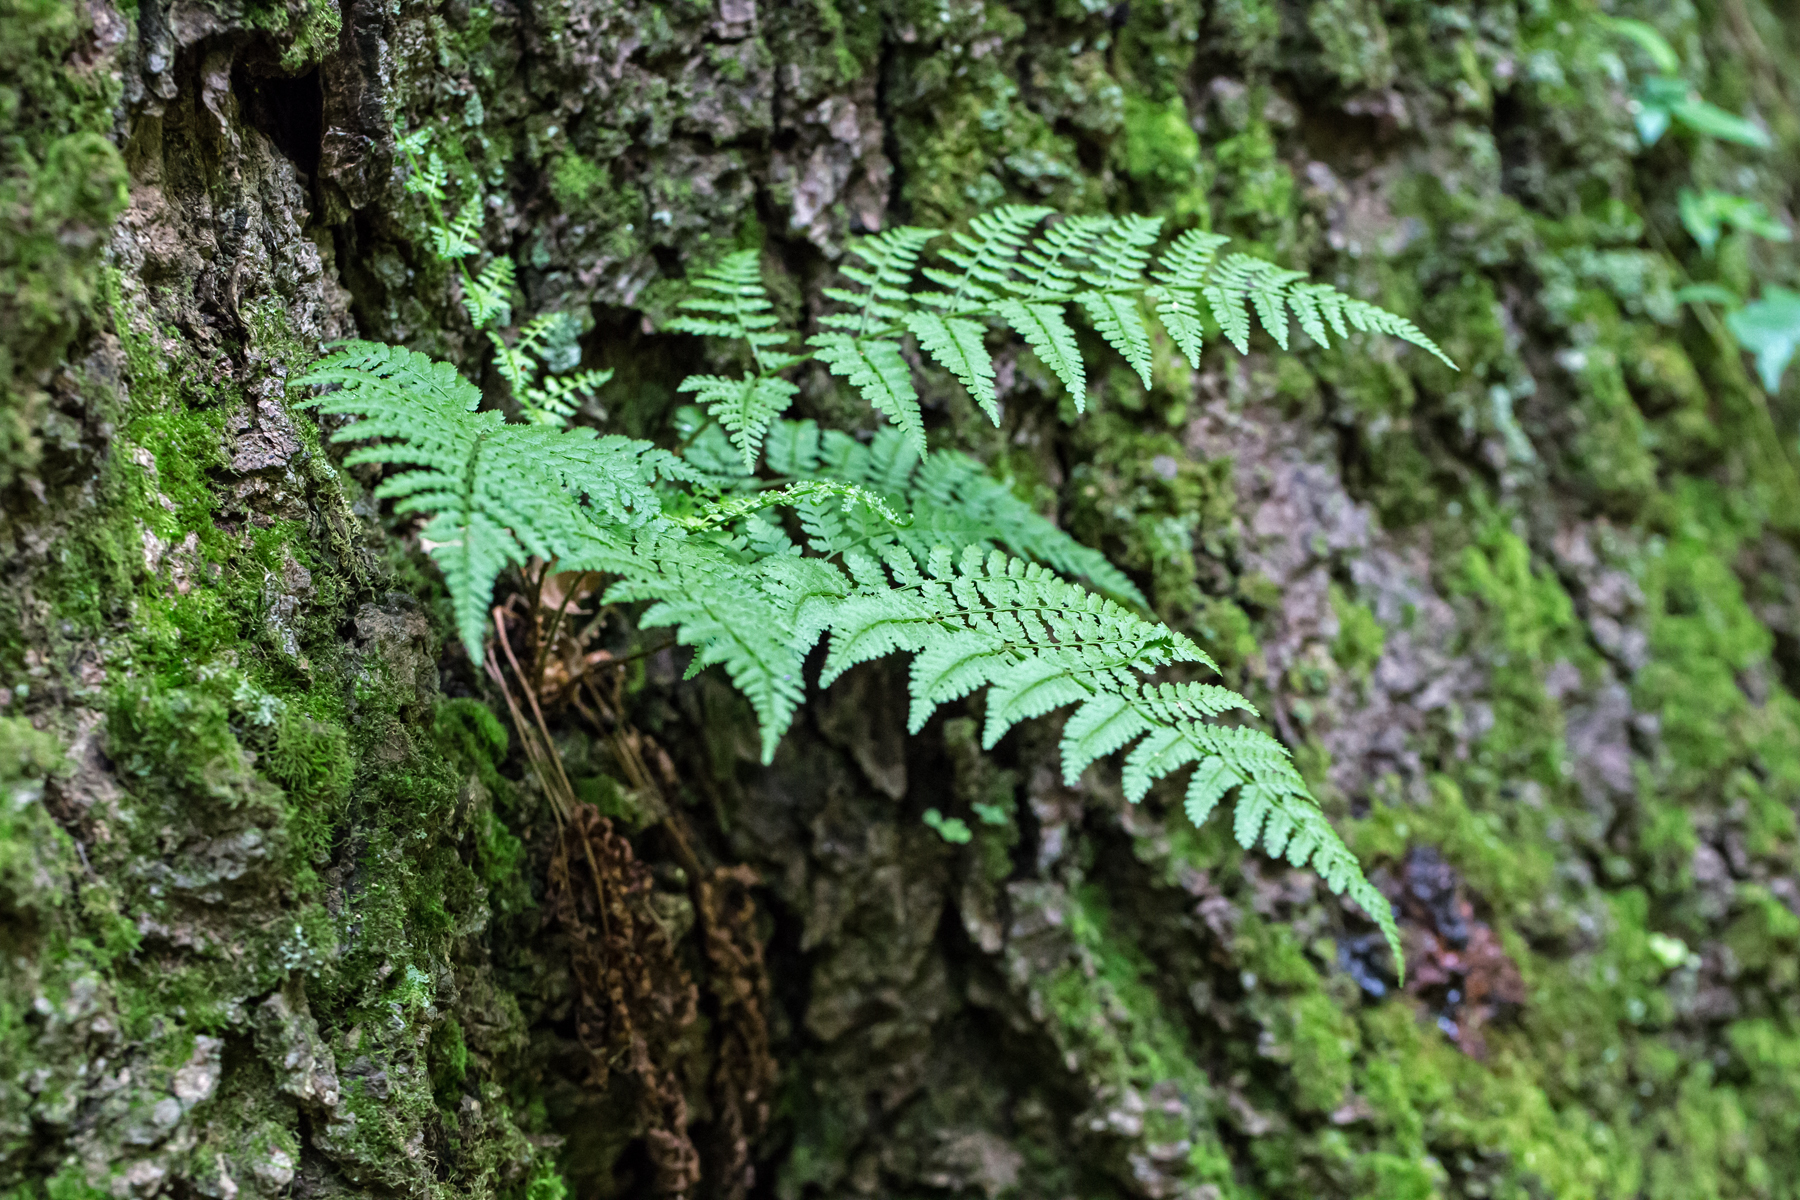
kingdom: Plantae
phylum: Tracheophyta
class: Polypodiopsida
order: Polypodiales
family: Dryopteridaceae
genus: Dryopteris
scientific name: Dryopteris intermedia
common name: Evergreen wood fern
